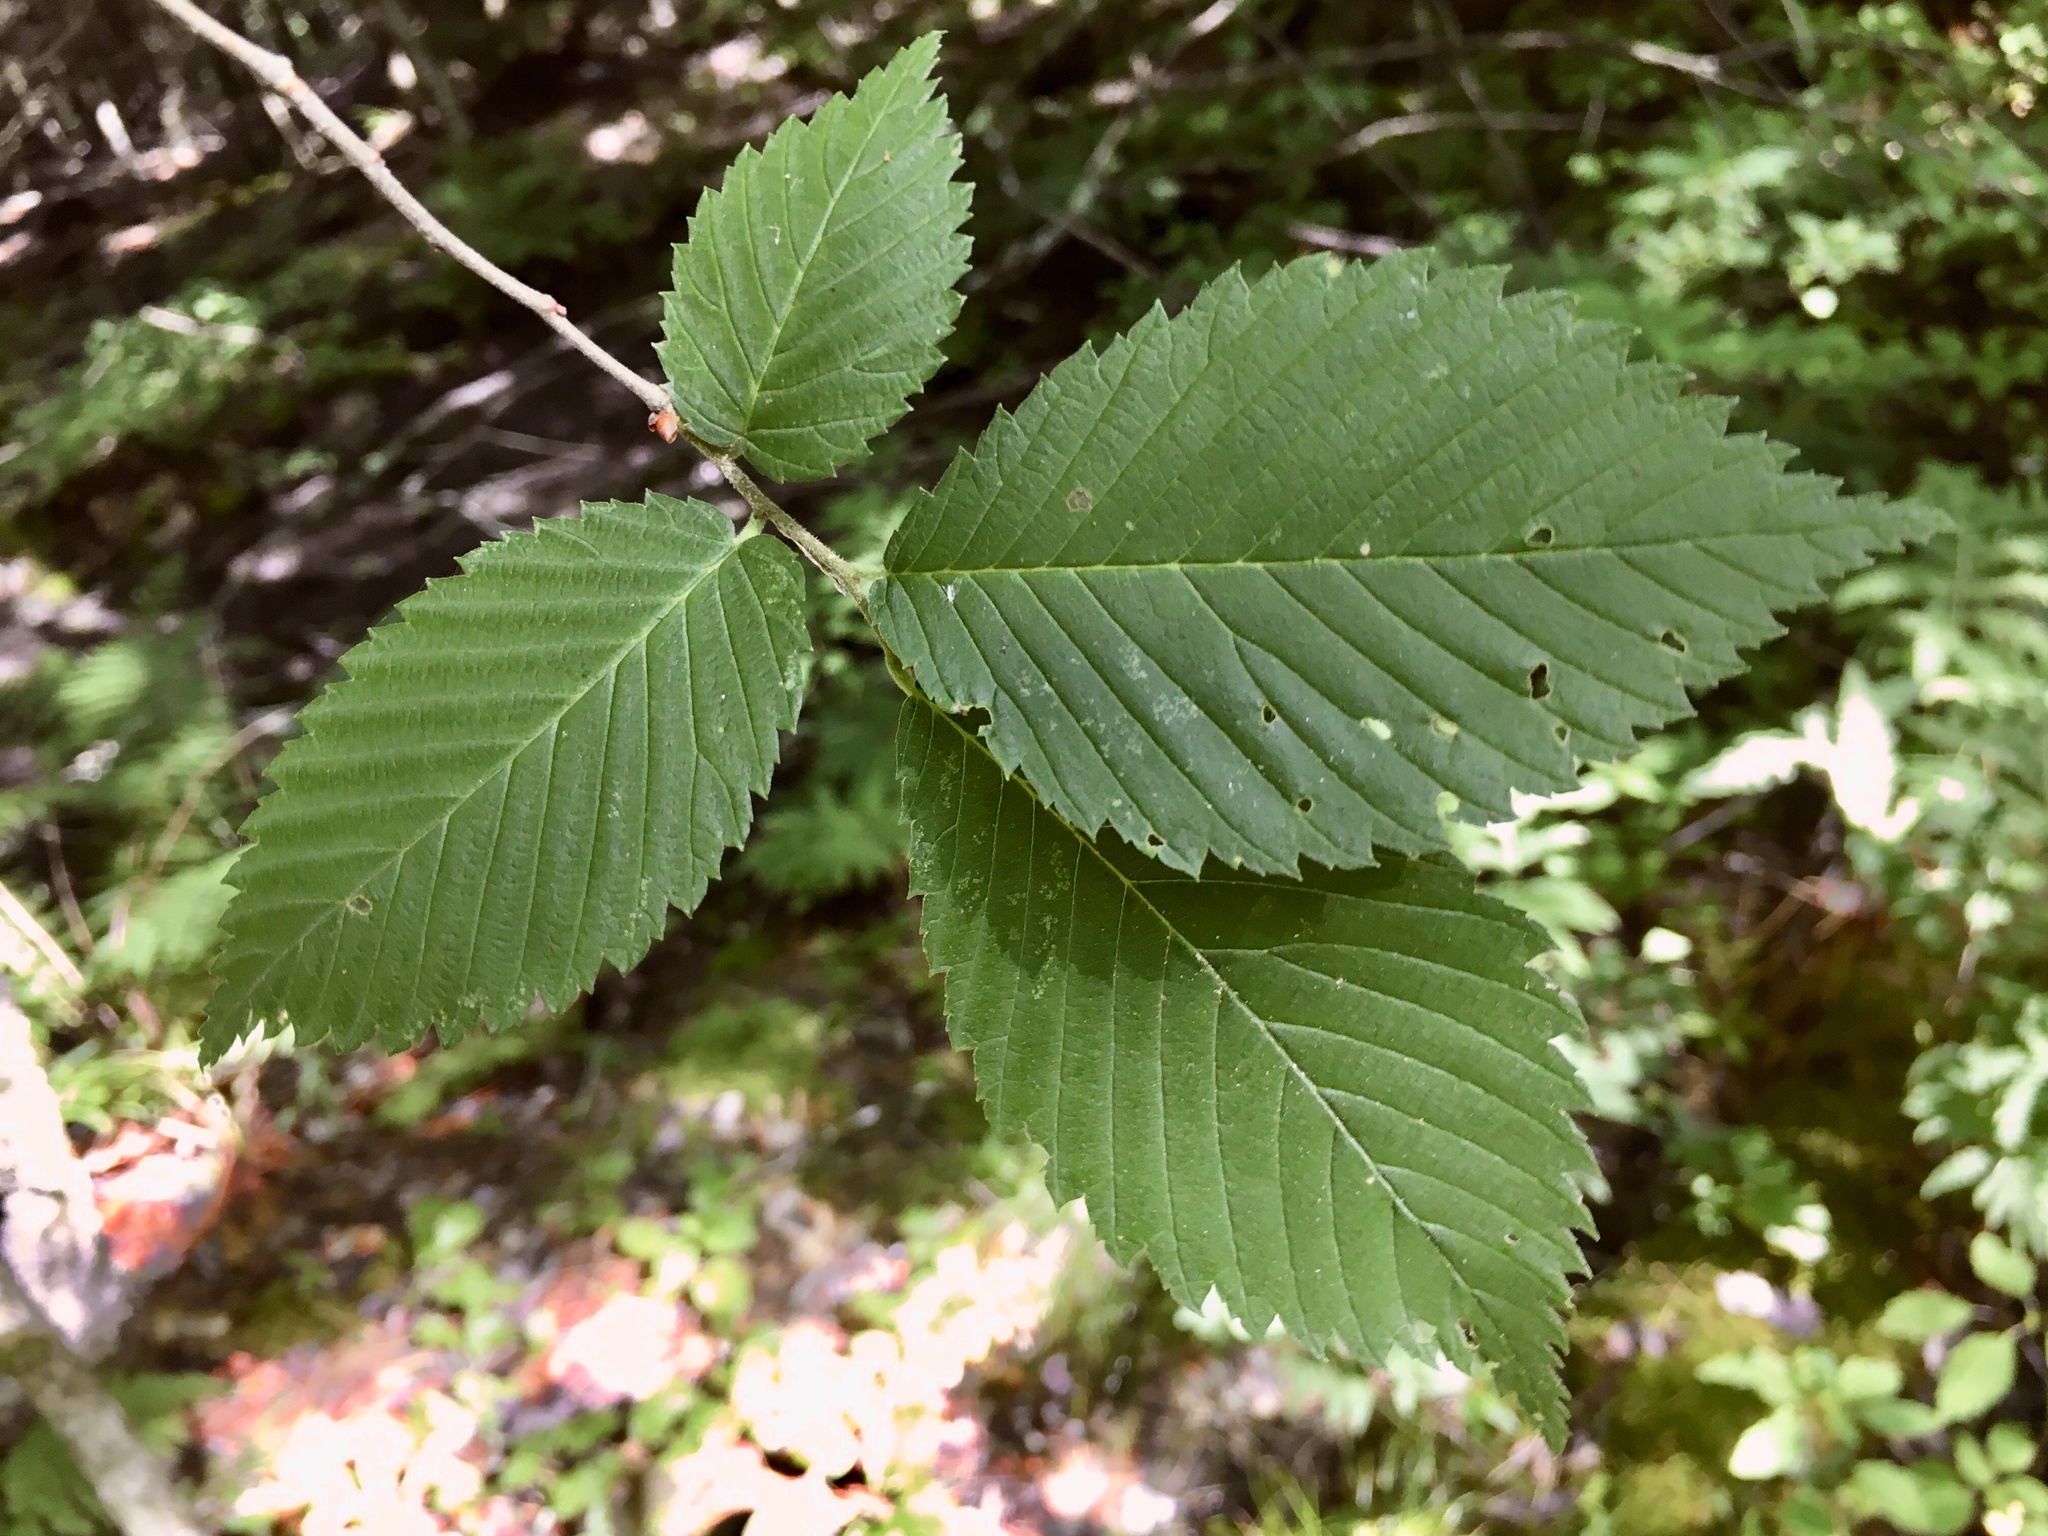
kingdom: Plantae
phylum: Tracheophyta
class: Magnoliopsida
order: Rosales
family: Ulmaceae
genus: Ulmus
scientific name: Ulmus americana
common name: American elm
